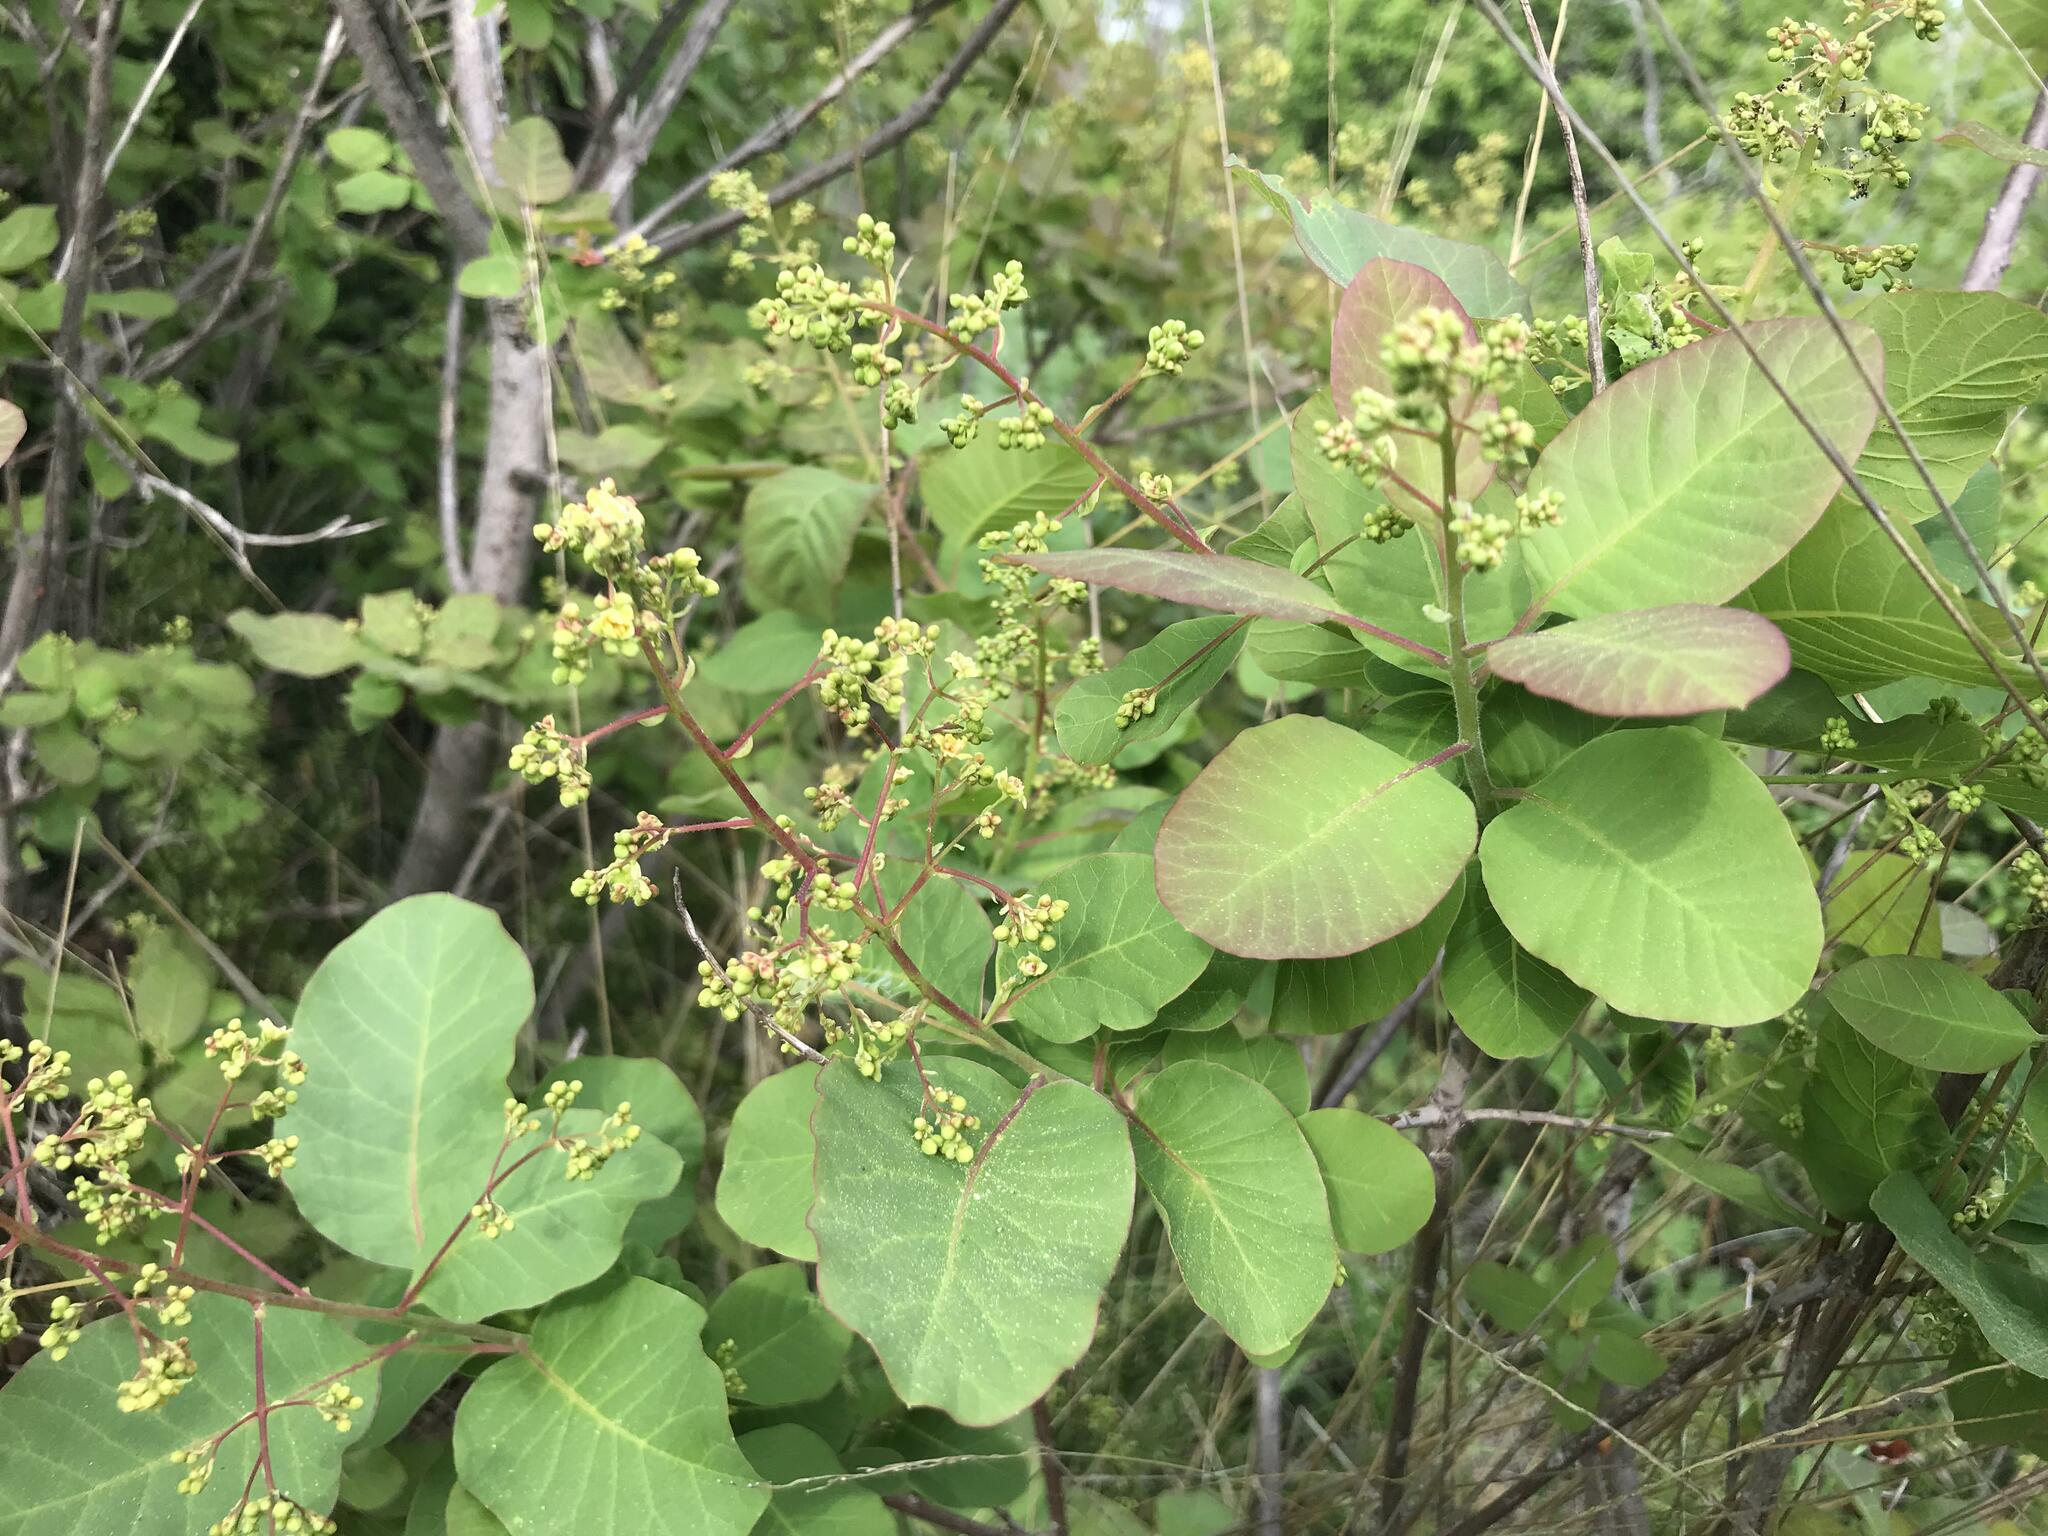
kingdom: Plantae
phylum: Tracheophyta
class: Magnoliopsida
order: Sapindales
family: Anacardiaceae
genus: Cotinus
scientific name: Cotinus coggygria
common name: Smoke-tree
